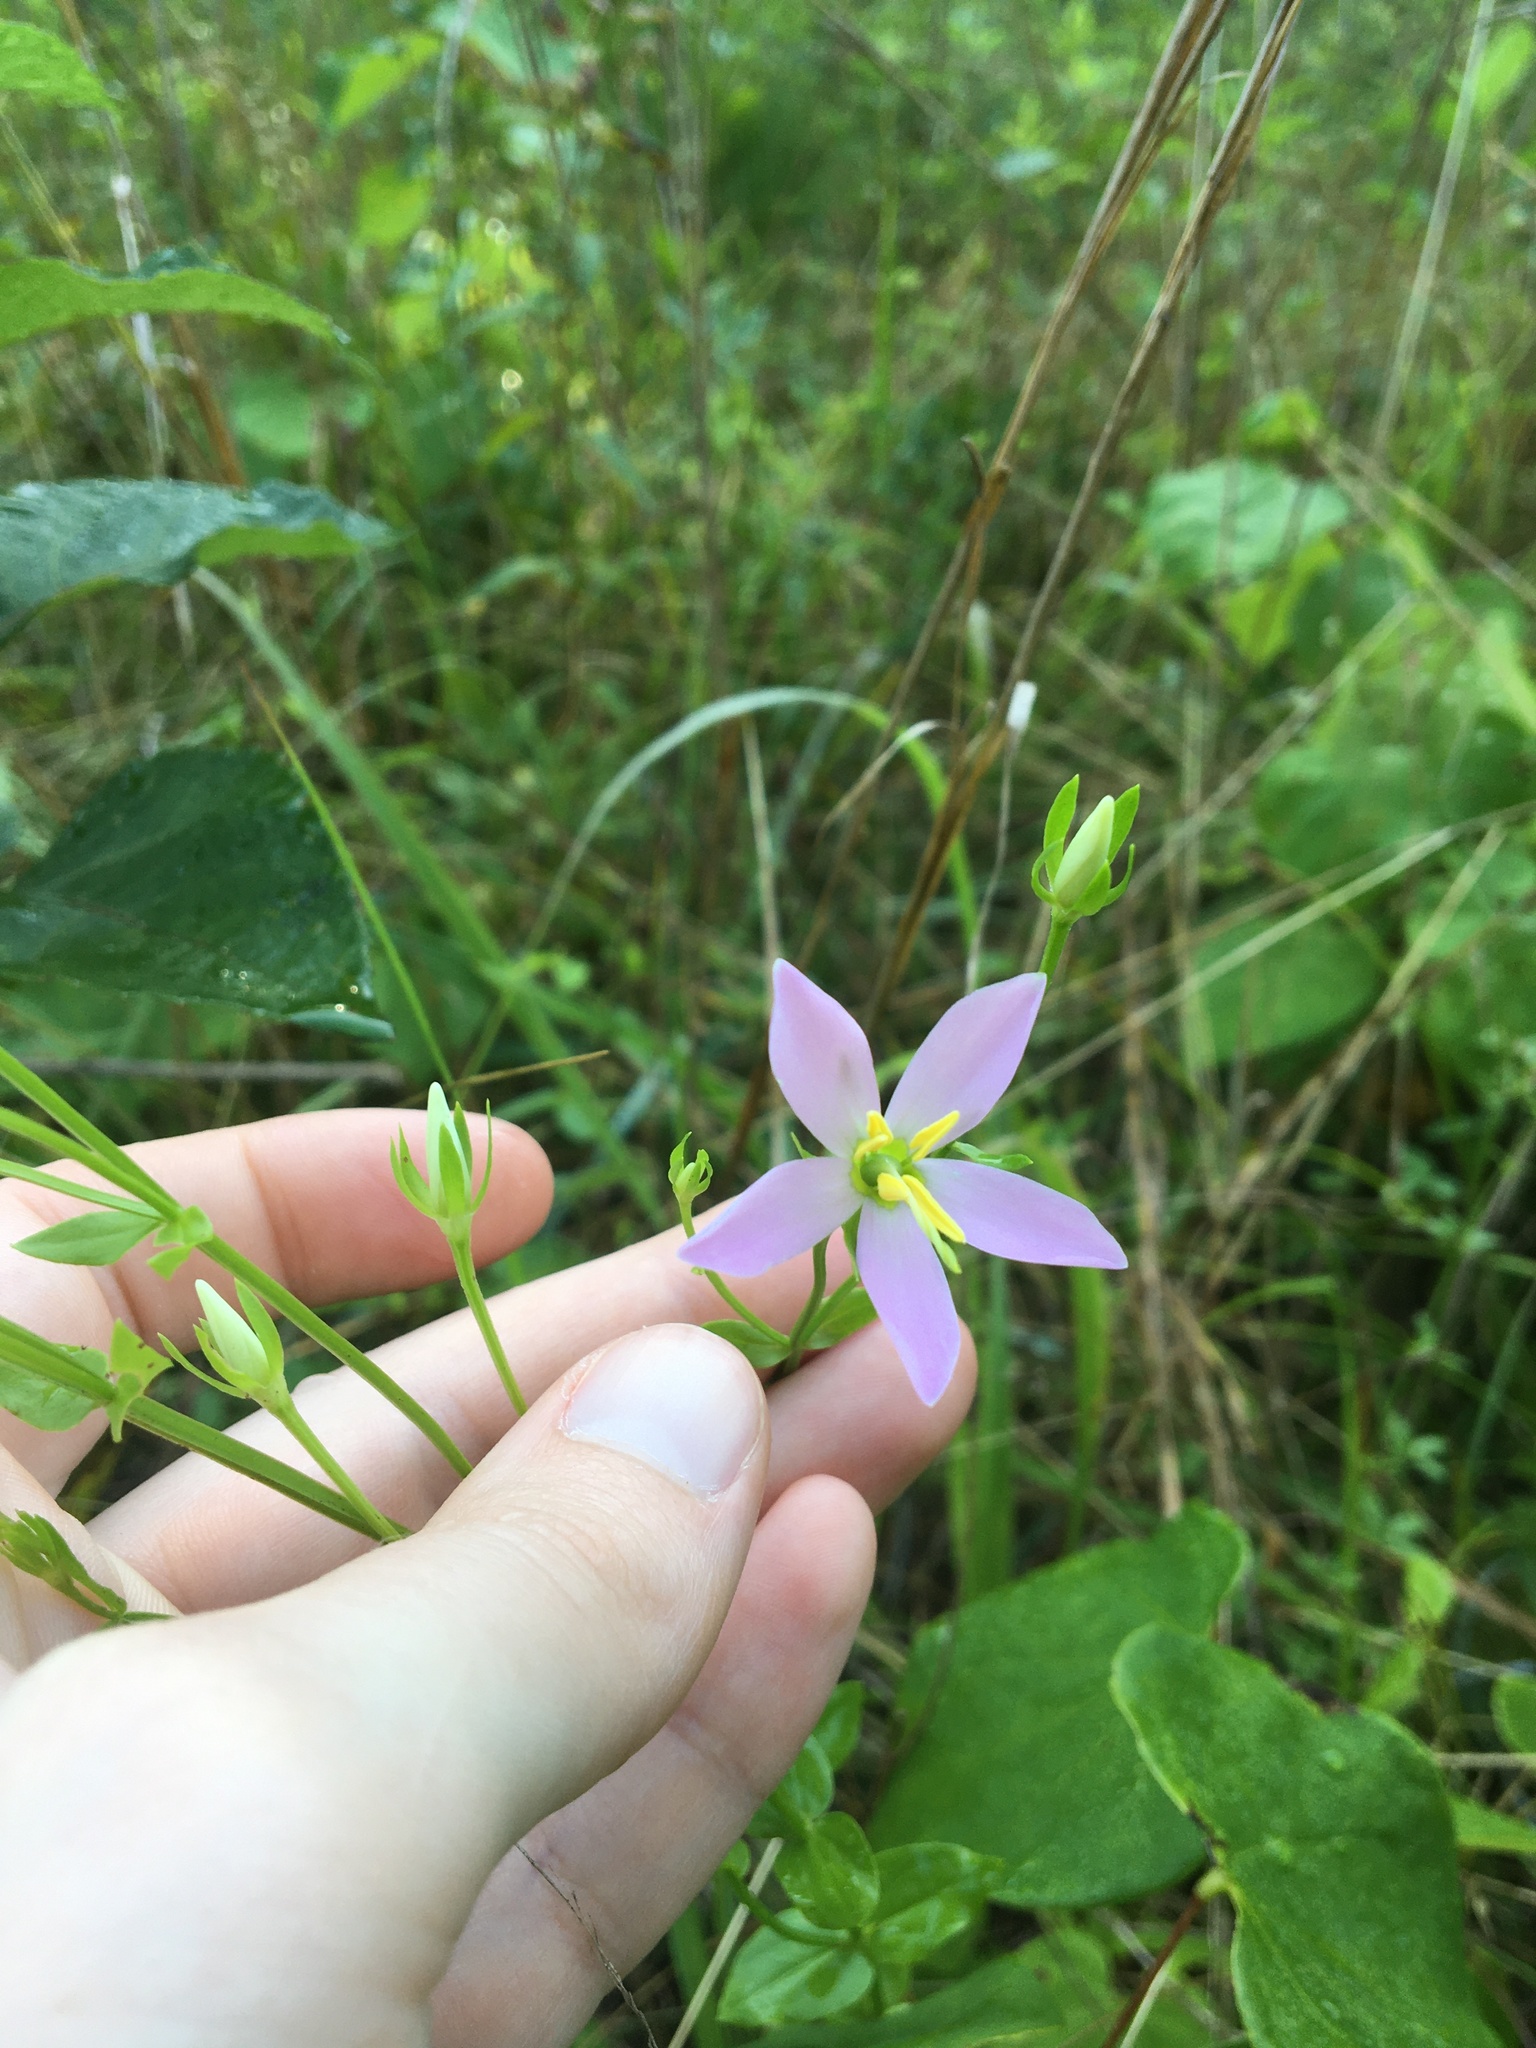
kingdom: Plantae
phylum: Tracheophyta
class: Magnoliopsida
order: Gentianales
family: Gentianaceae
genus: Sabatia
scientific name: Sabatia angularis
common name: Rose-pink
